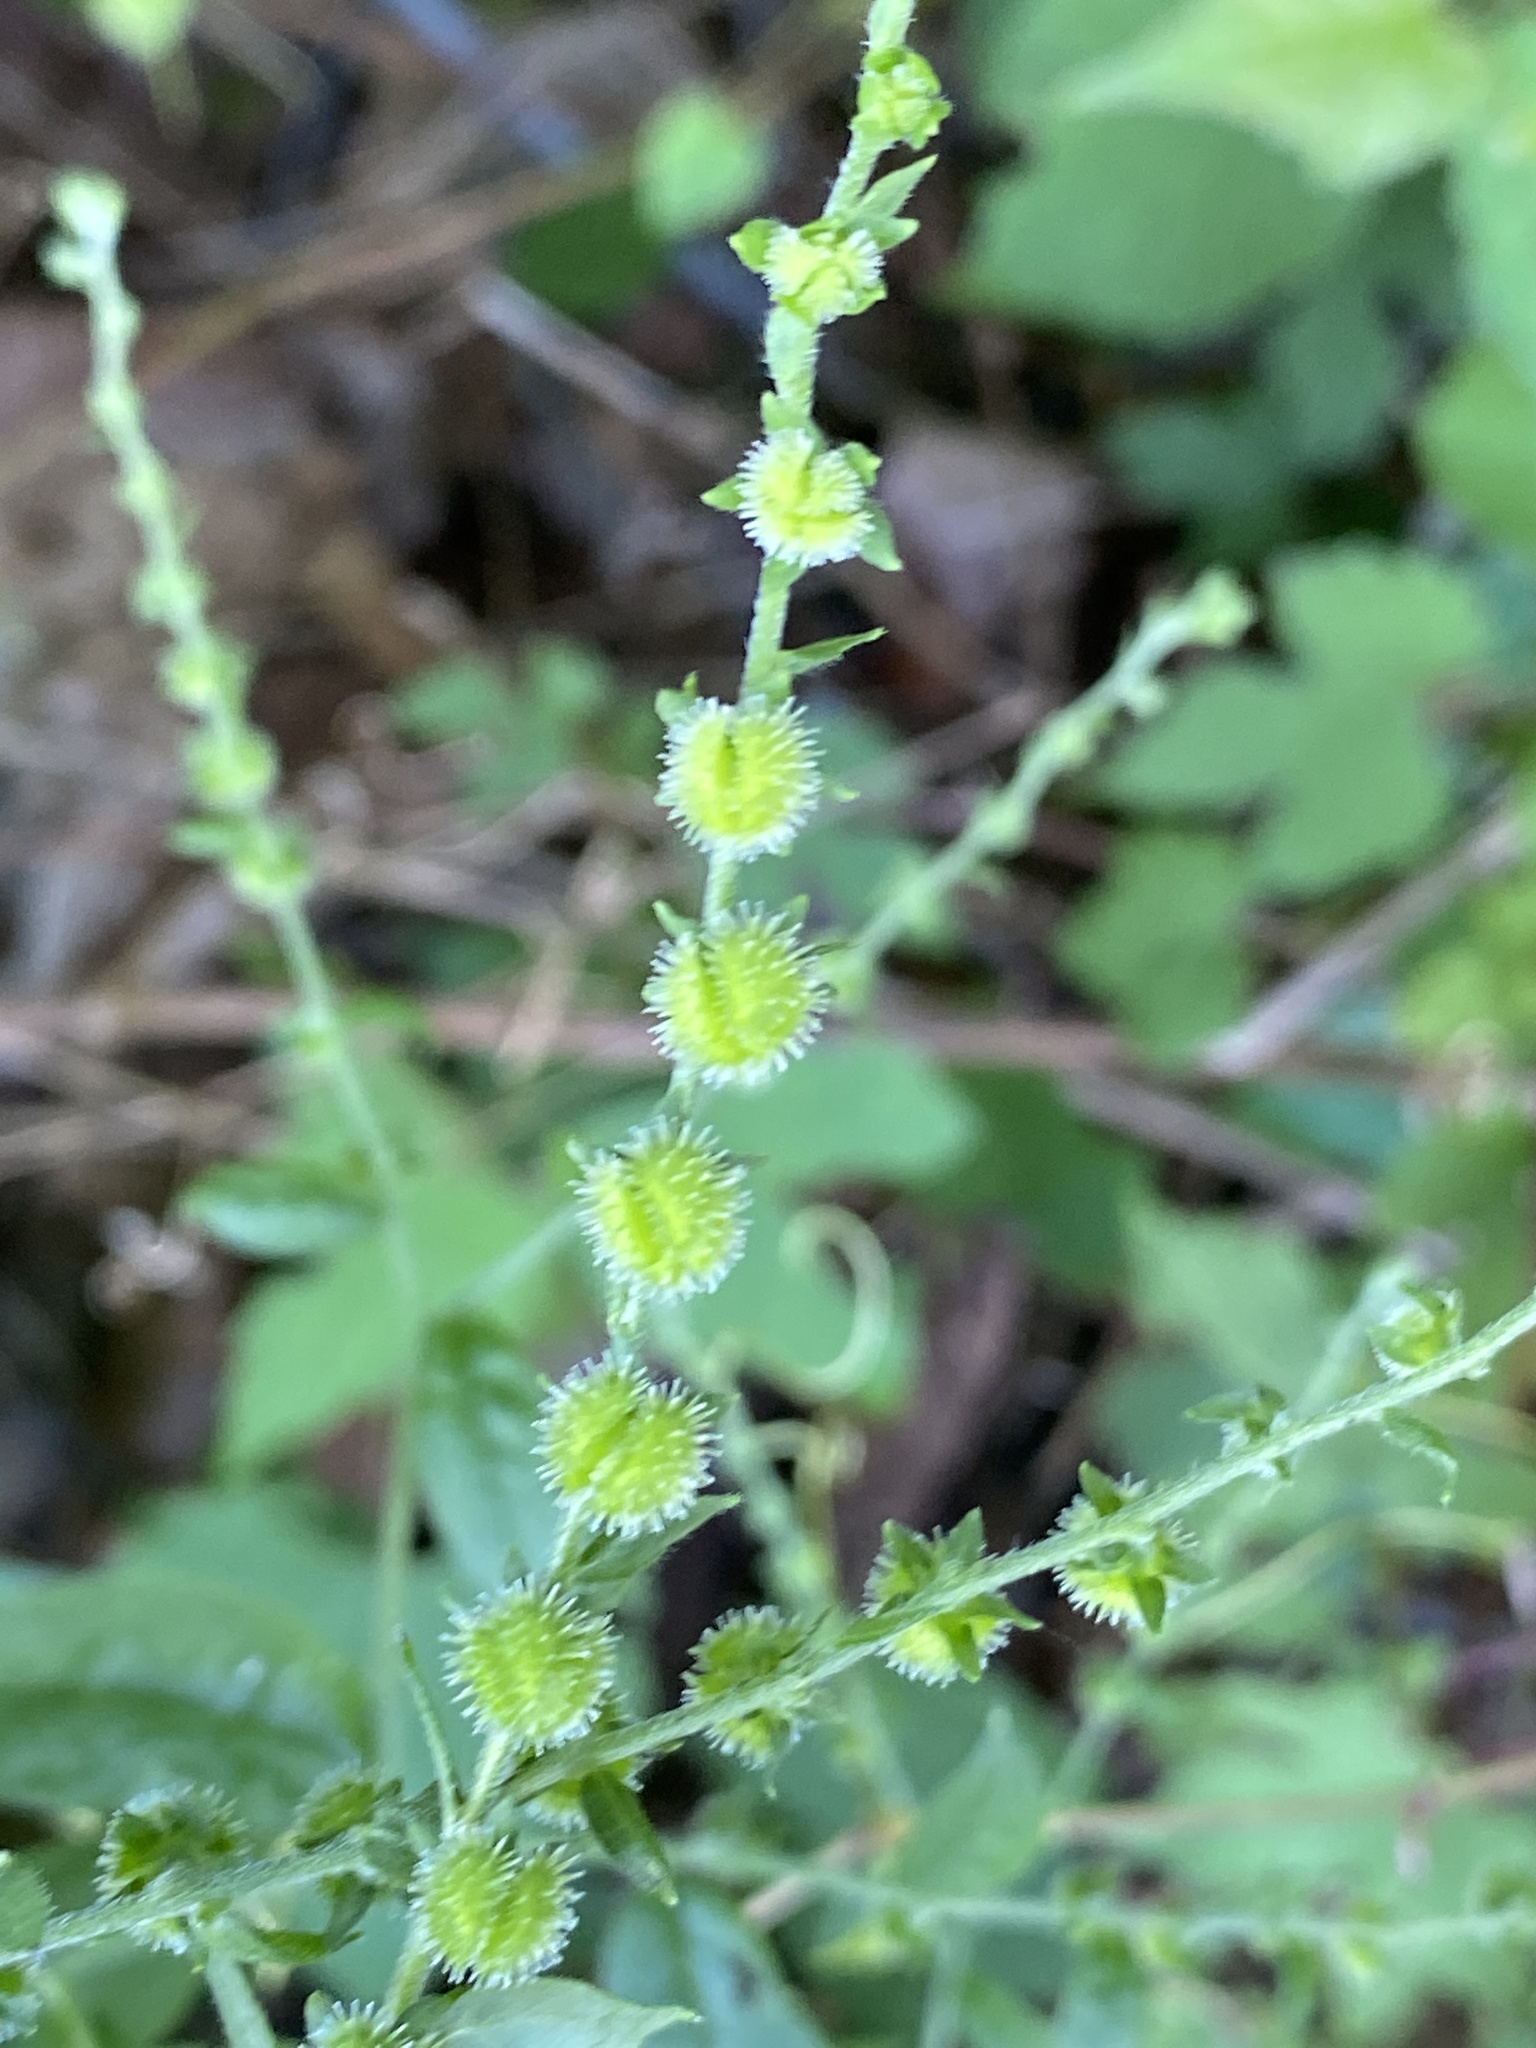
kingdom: Plantae
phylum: Tracheophyta
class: Magnoliopsida
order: Boraginales
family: Boraginaceae
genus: Hackelia
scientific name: Hackelia virginiana
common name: Beggar's-lice
